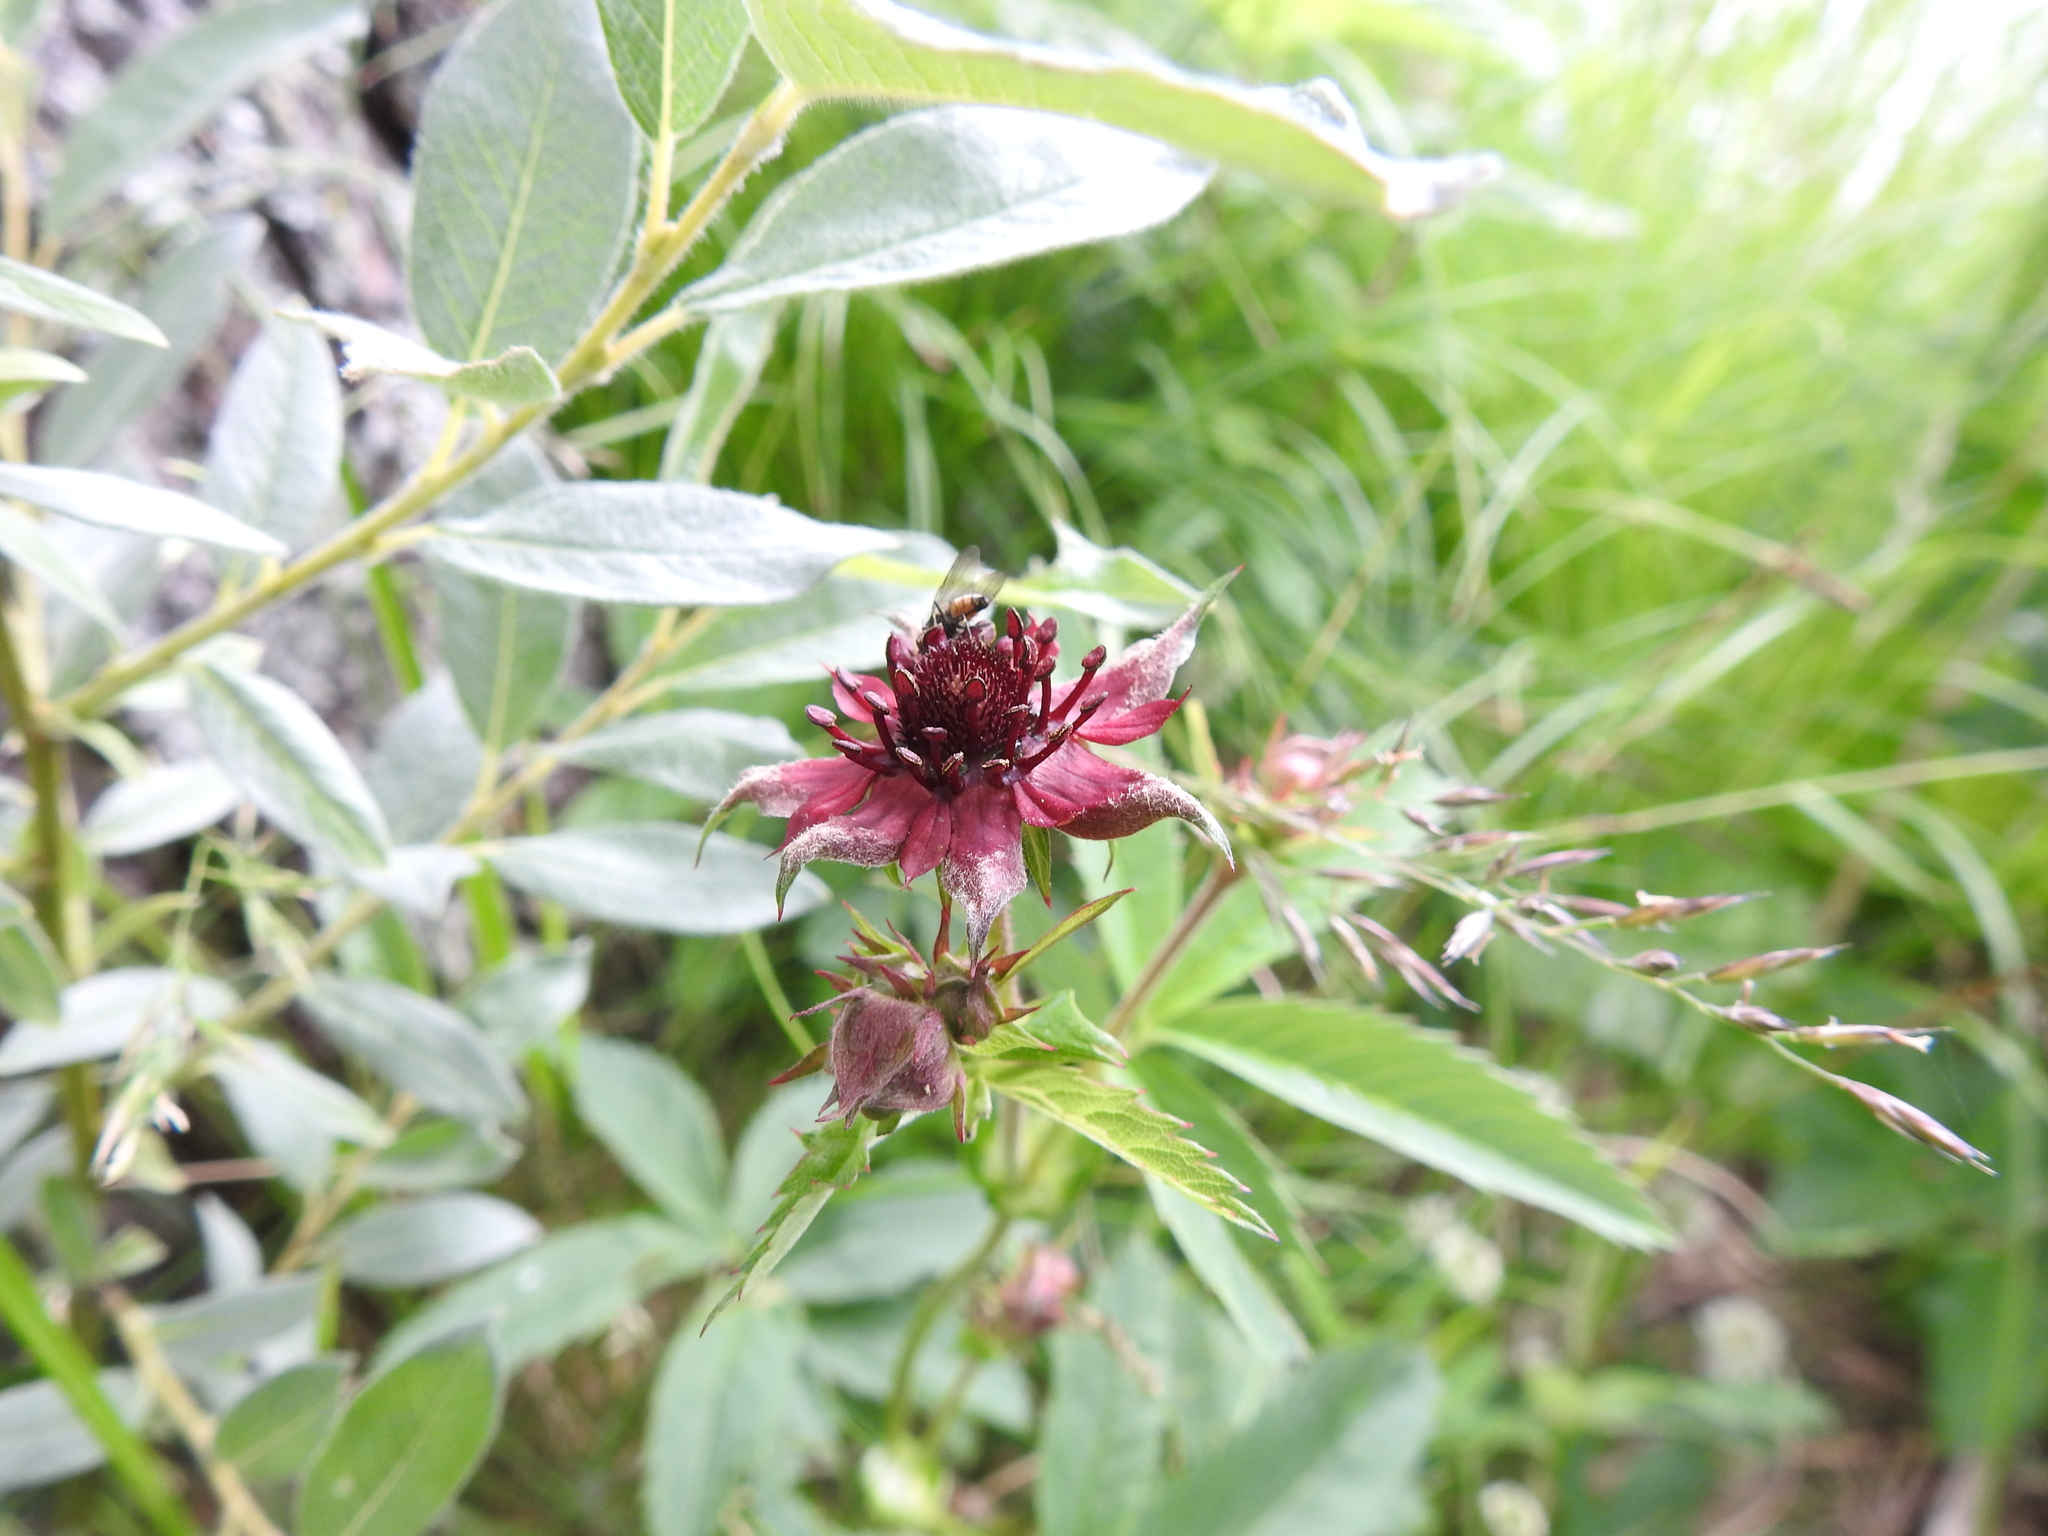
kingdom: Plantae
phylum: Tracheophyta
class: Magnoliopsida
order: Rosales
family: Rosaceae
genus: Comarum
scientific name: Comarum palustre
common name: Marsh cinquefoil
